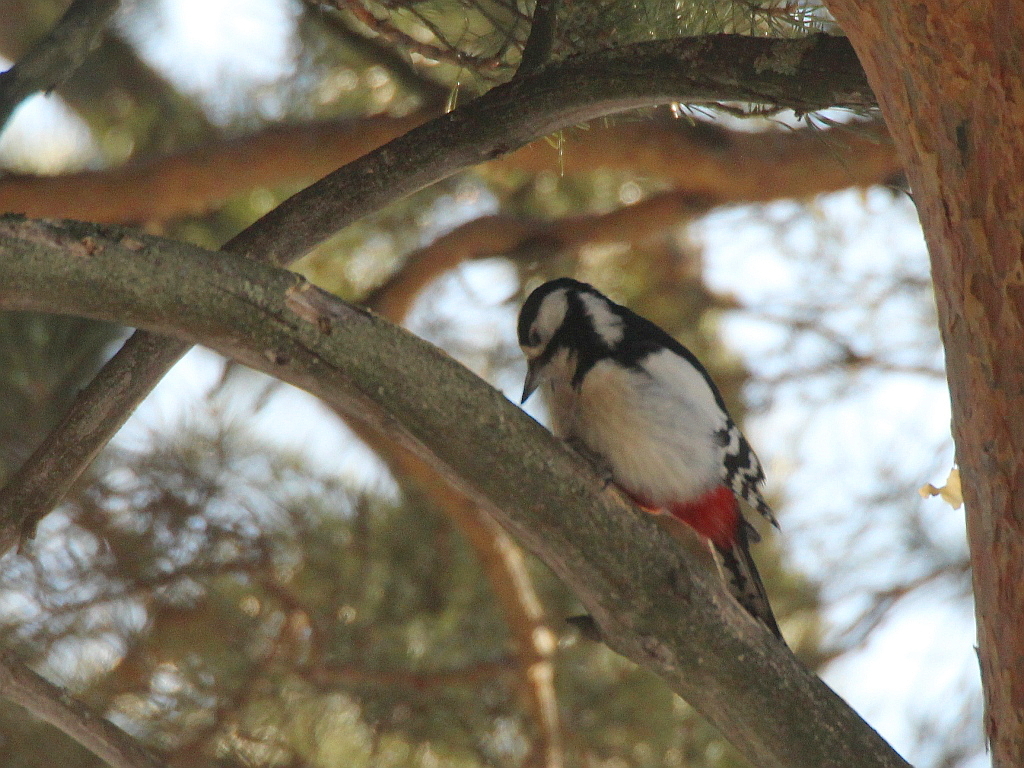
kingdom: Animalia
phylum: Chordata
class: Aves
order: Piciformes
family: Picidae
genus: Dendrocopos
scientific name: Dendrocopos major
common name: Great spotted woodpecker
